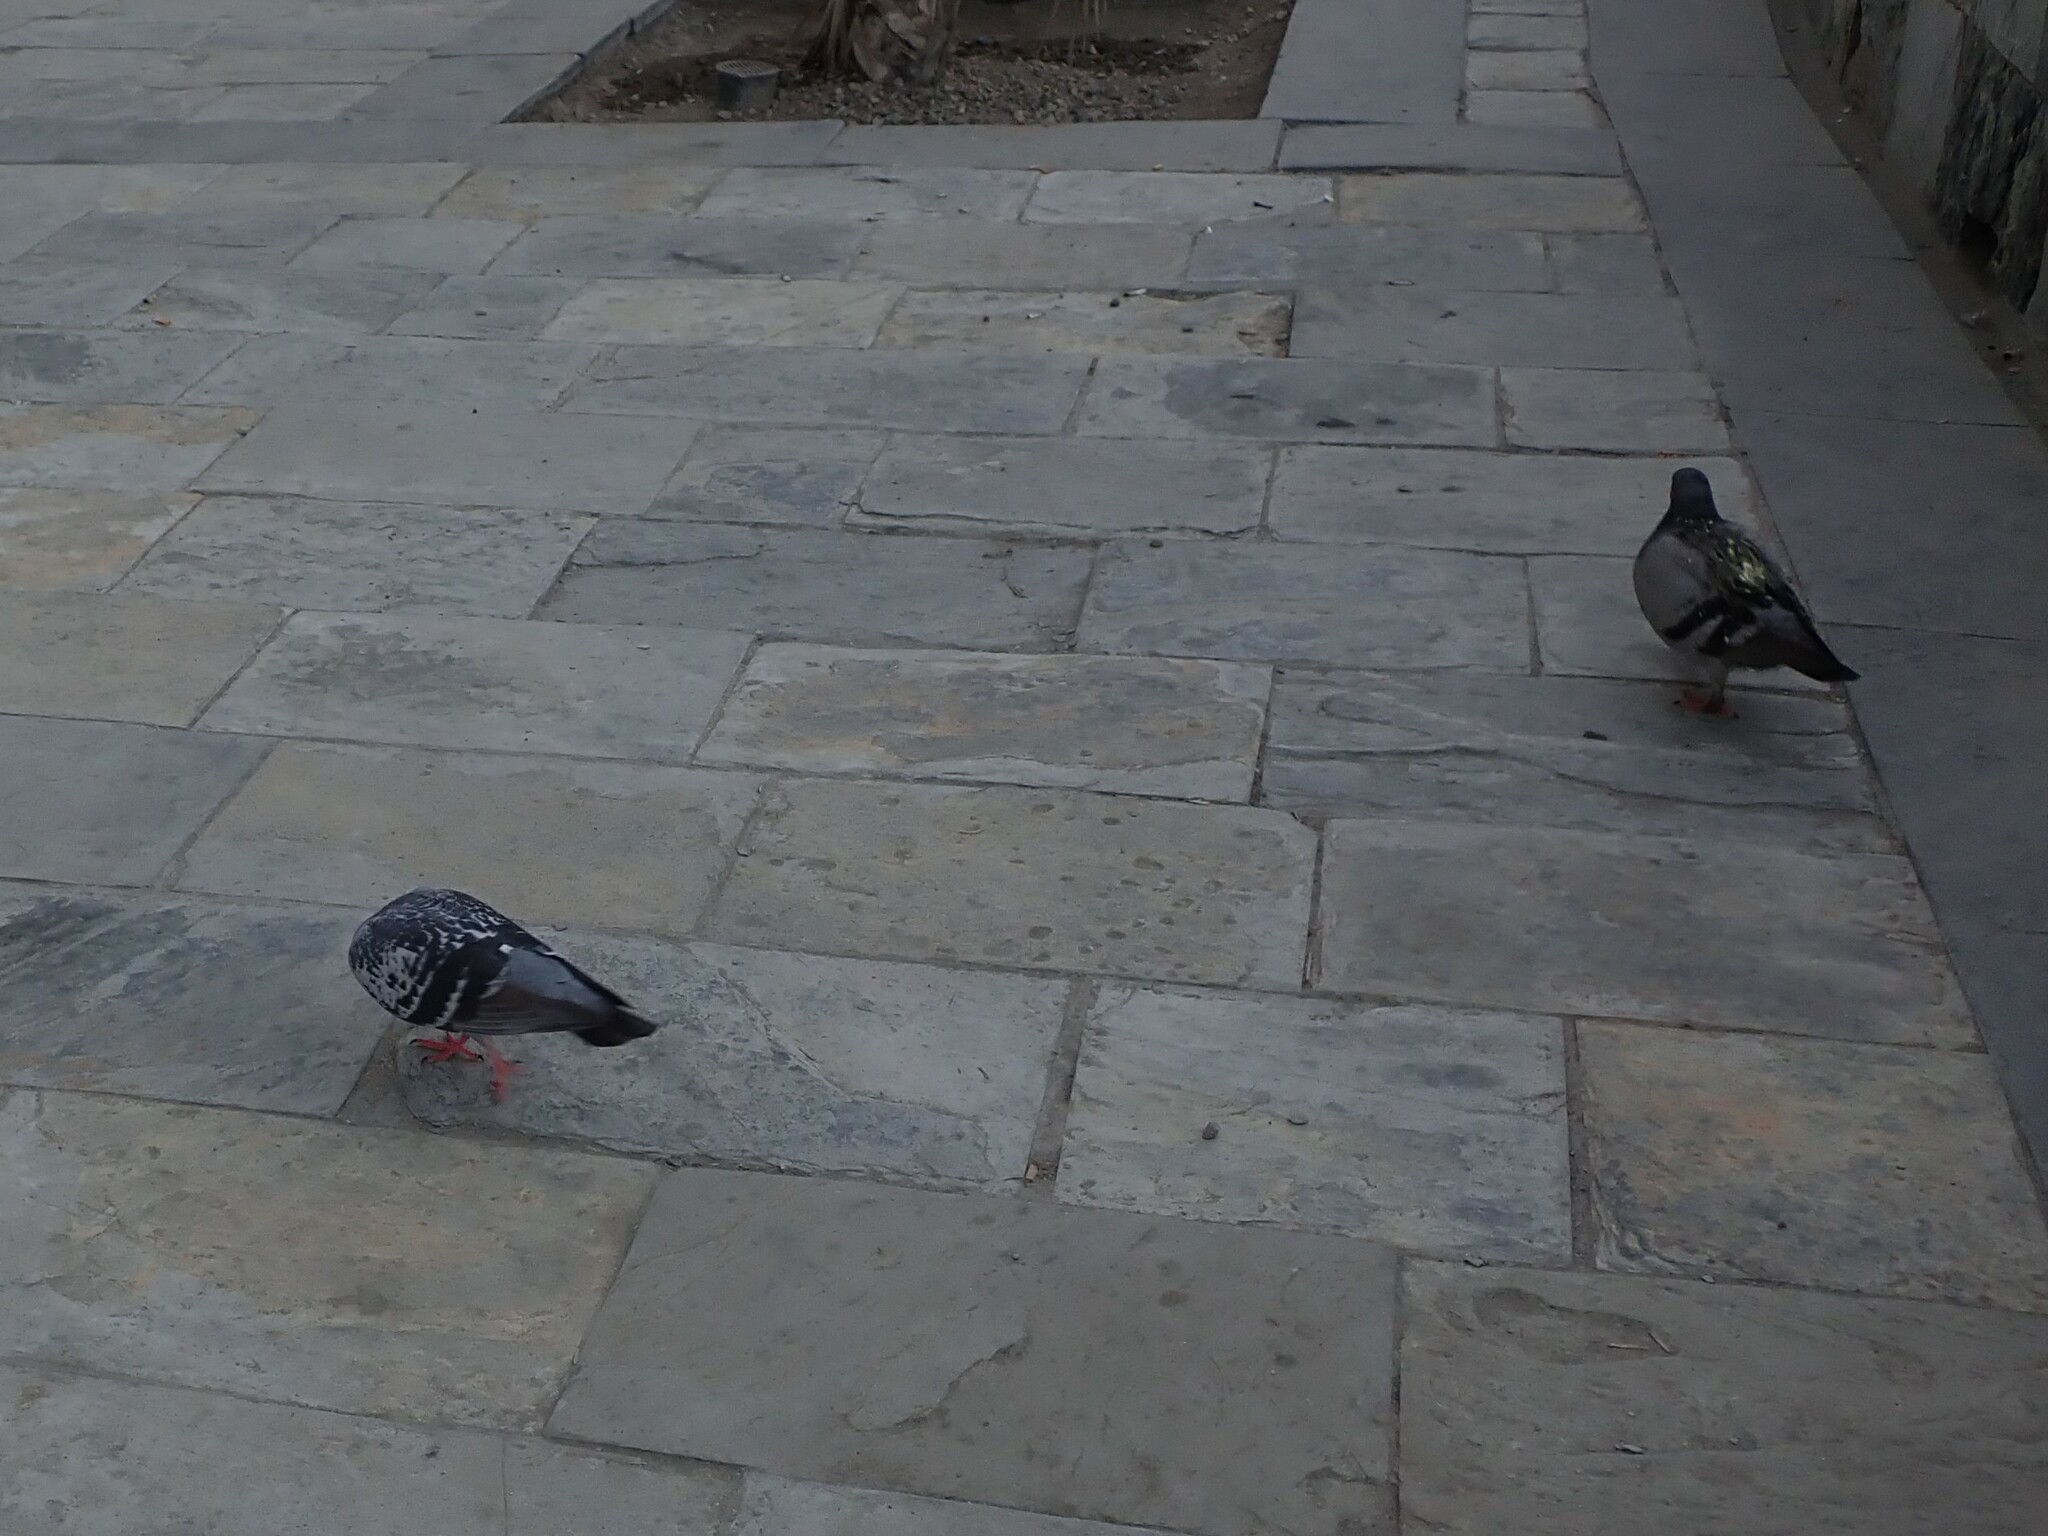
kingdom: Animalia
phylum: Chordata
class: Aves
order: Columbiformes
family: Columbidae
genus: Columba
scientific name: Columba livia
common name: Rock pigeon
